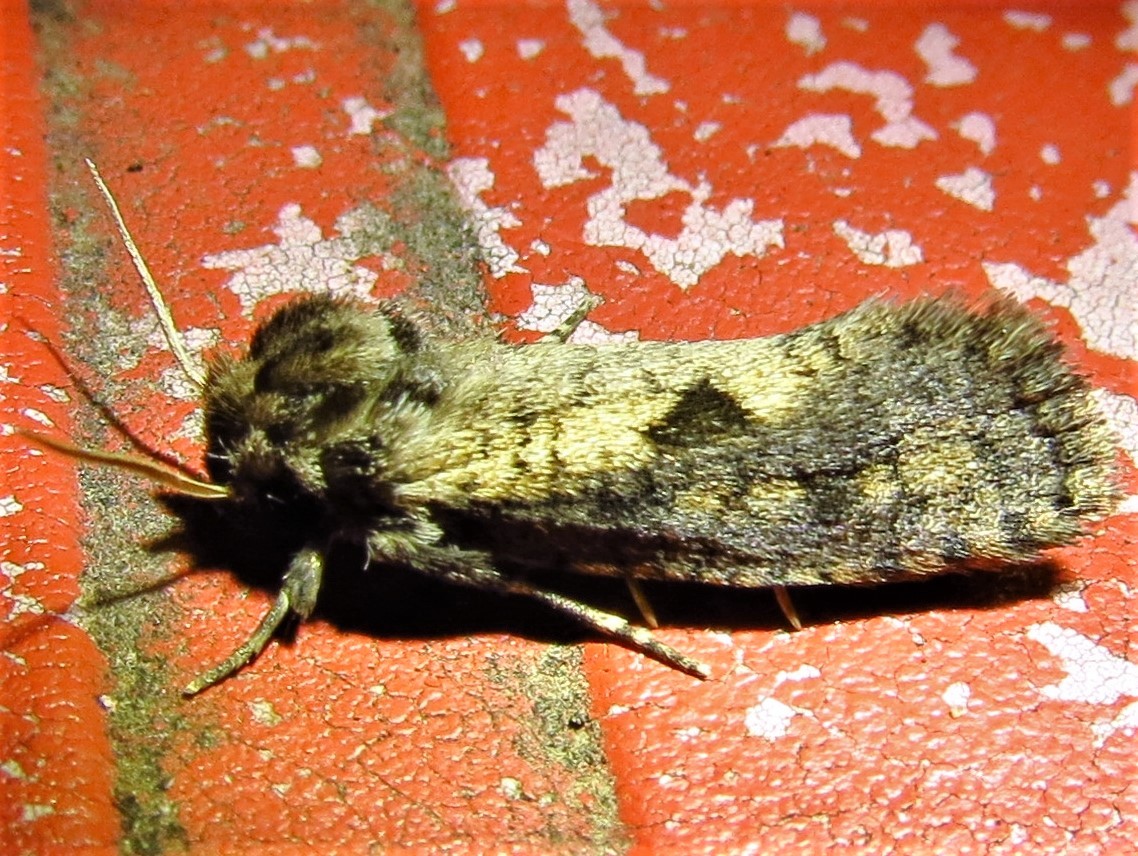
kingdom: Animalia
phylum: Arthropoda
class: Insecta
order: Lepidoptera
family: Tineidae
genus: Acrolophus
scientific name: Acrolophus popeanella
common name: Clemens' grass tubeworm moth
